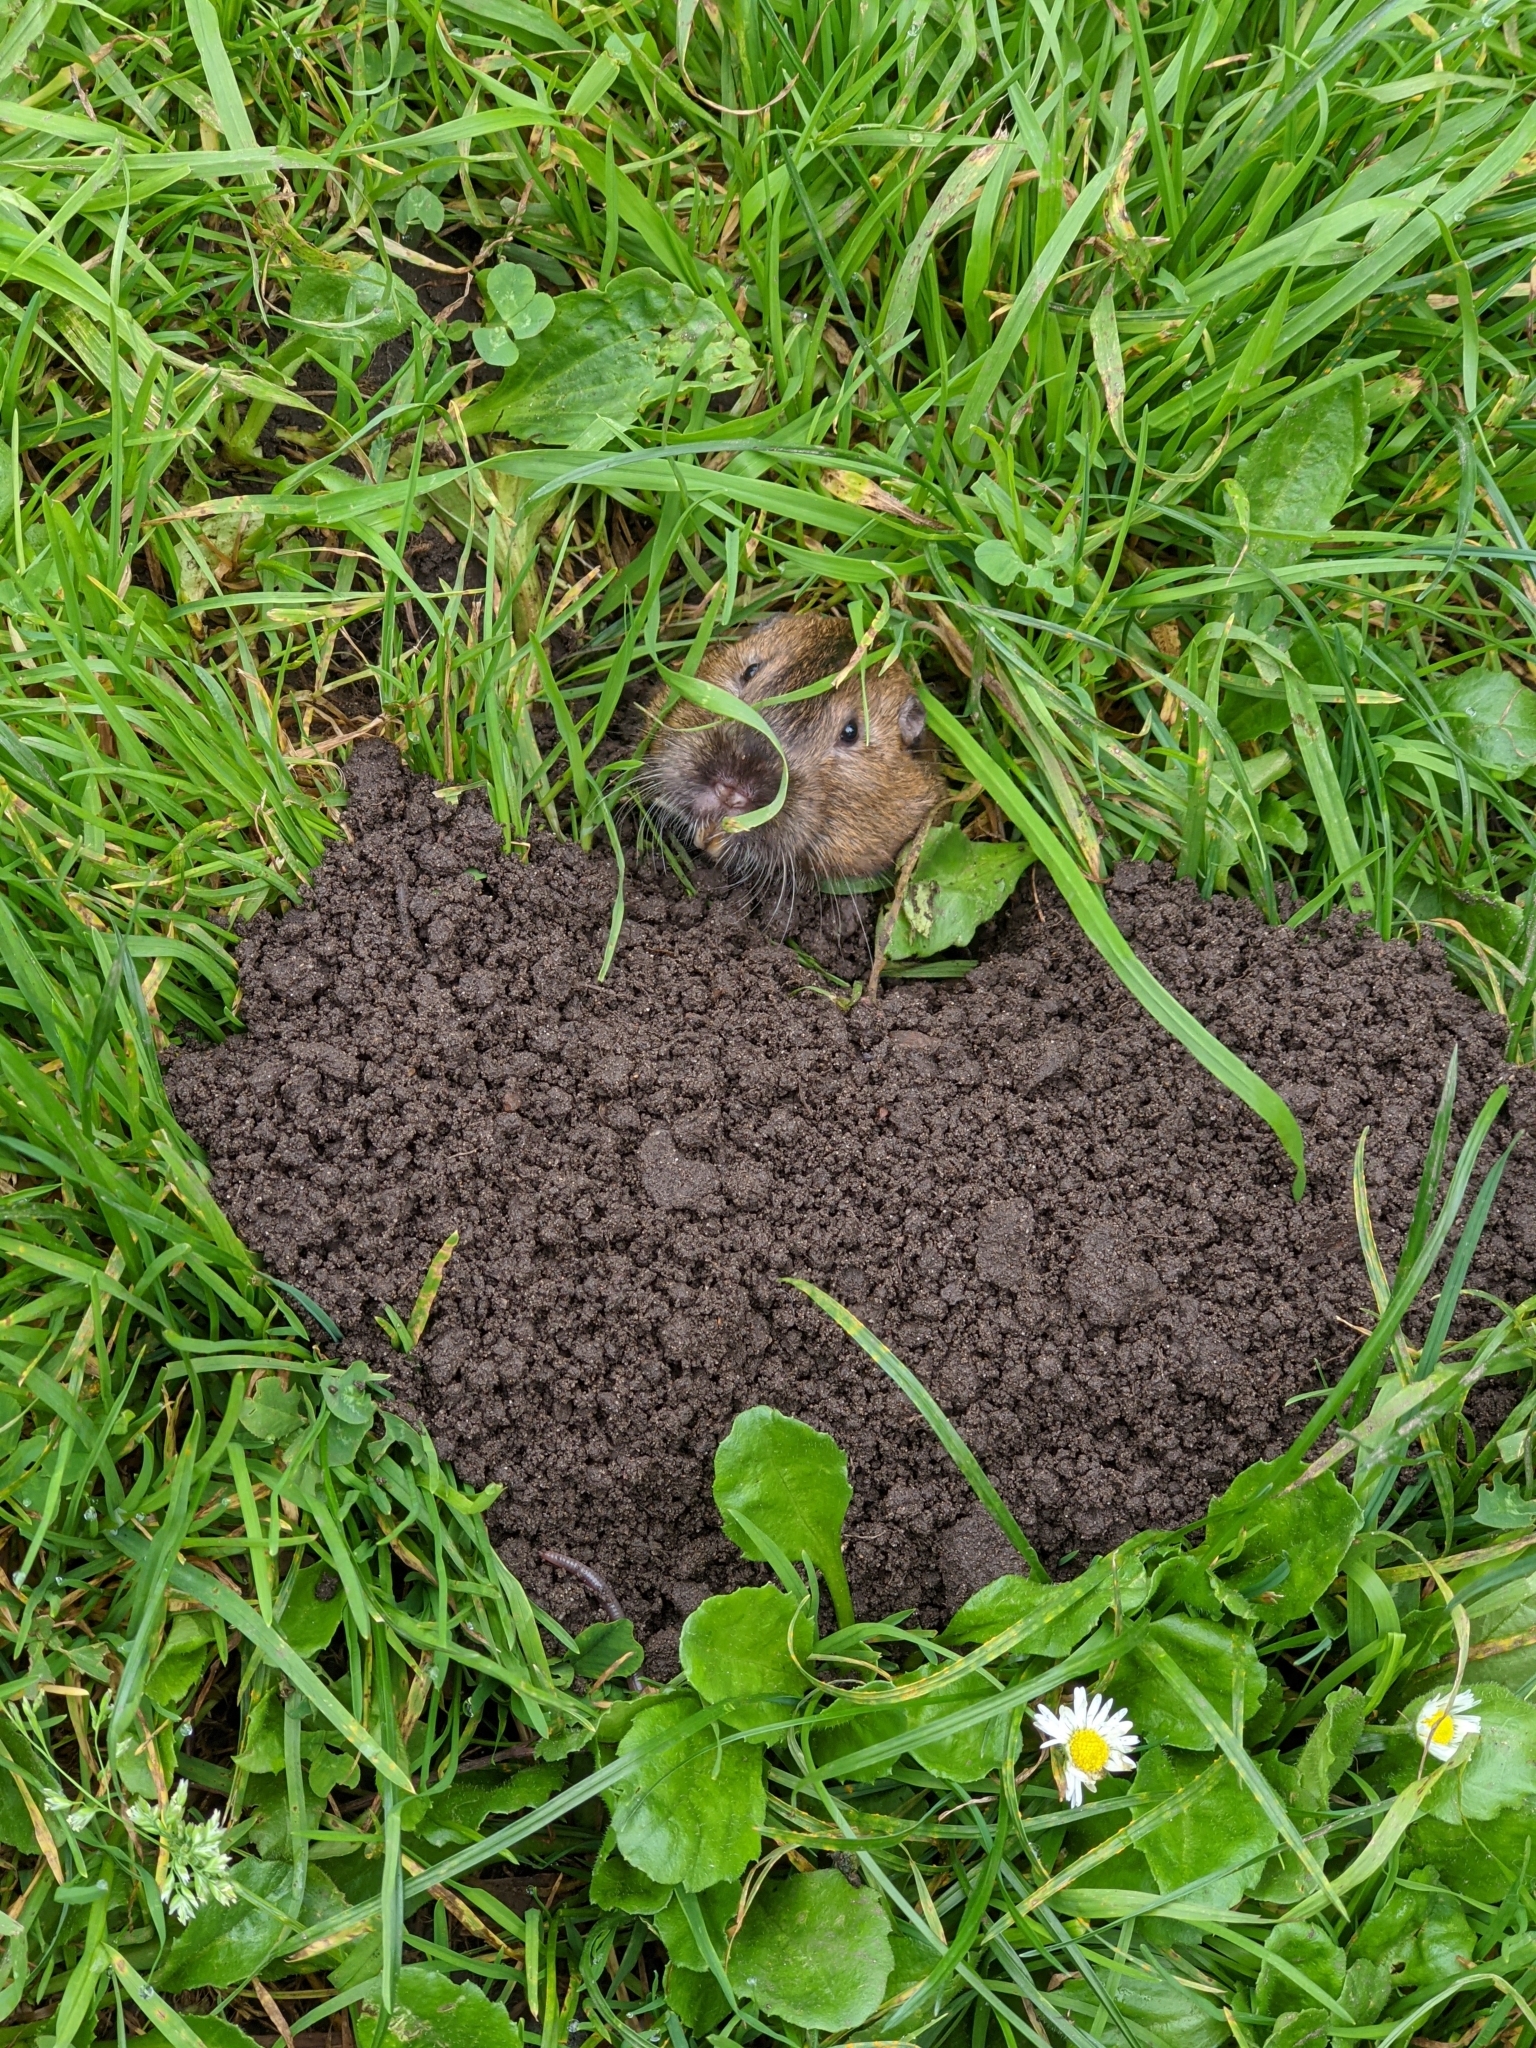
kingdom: Animalia
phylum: Chordata
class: Mammalia
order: Rodentia
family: Geomyidae
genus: Thomomys
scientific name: Thomomys bottae
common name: Botta's pocket gopher
